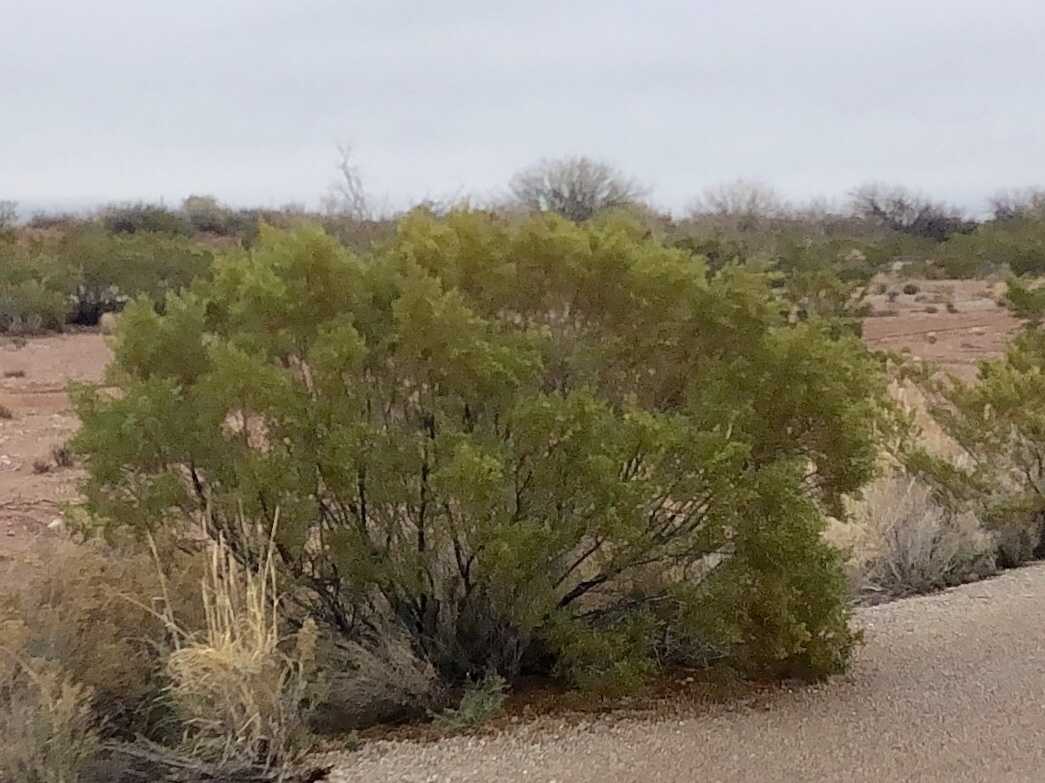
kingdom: Plantae
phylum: Tracheophyta
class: Magnoliopsida
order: Zygophyllales
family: Zygophyllaceae
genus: Larrea
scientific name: Larrea tridentata
